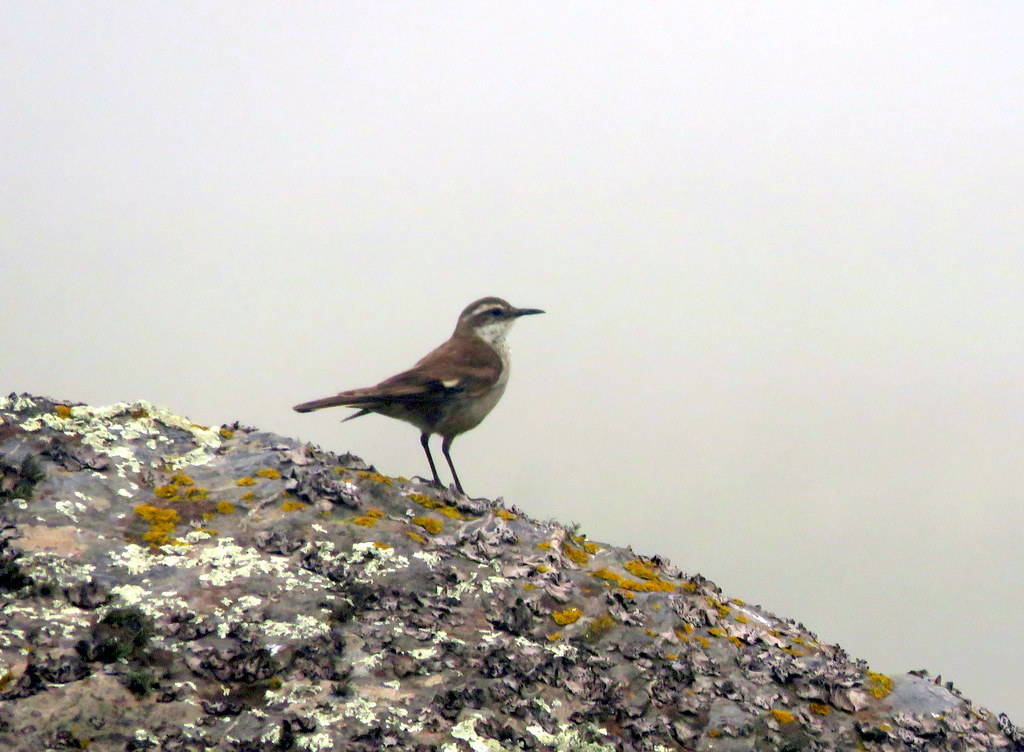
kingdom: Animalia
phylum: Chordata
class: Aves
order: Passeriformes
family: Furnariidae
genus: Cinclodes
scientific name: Cinclodes fuscus
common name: Buff-winged cinclodes
